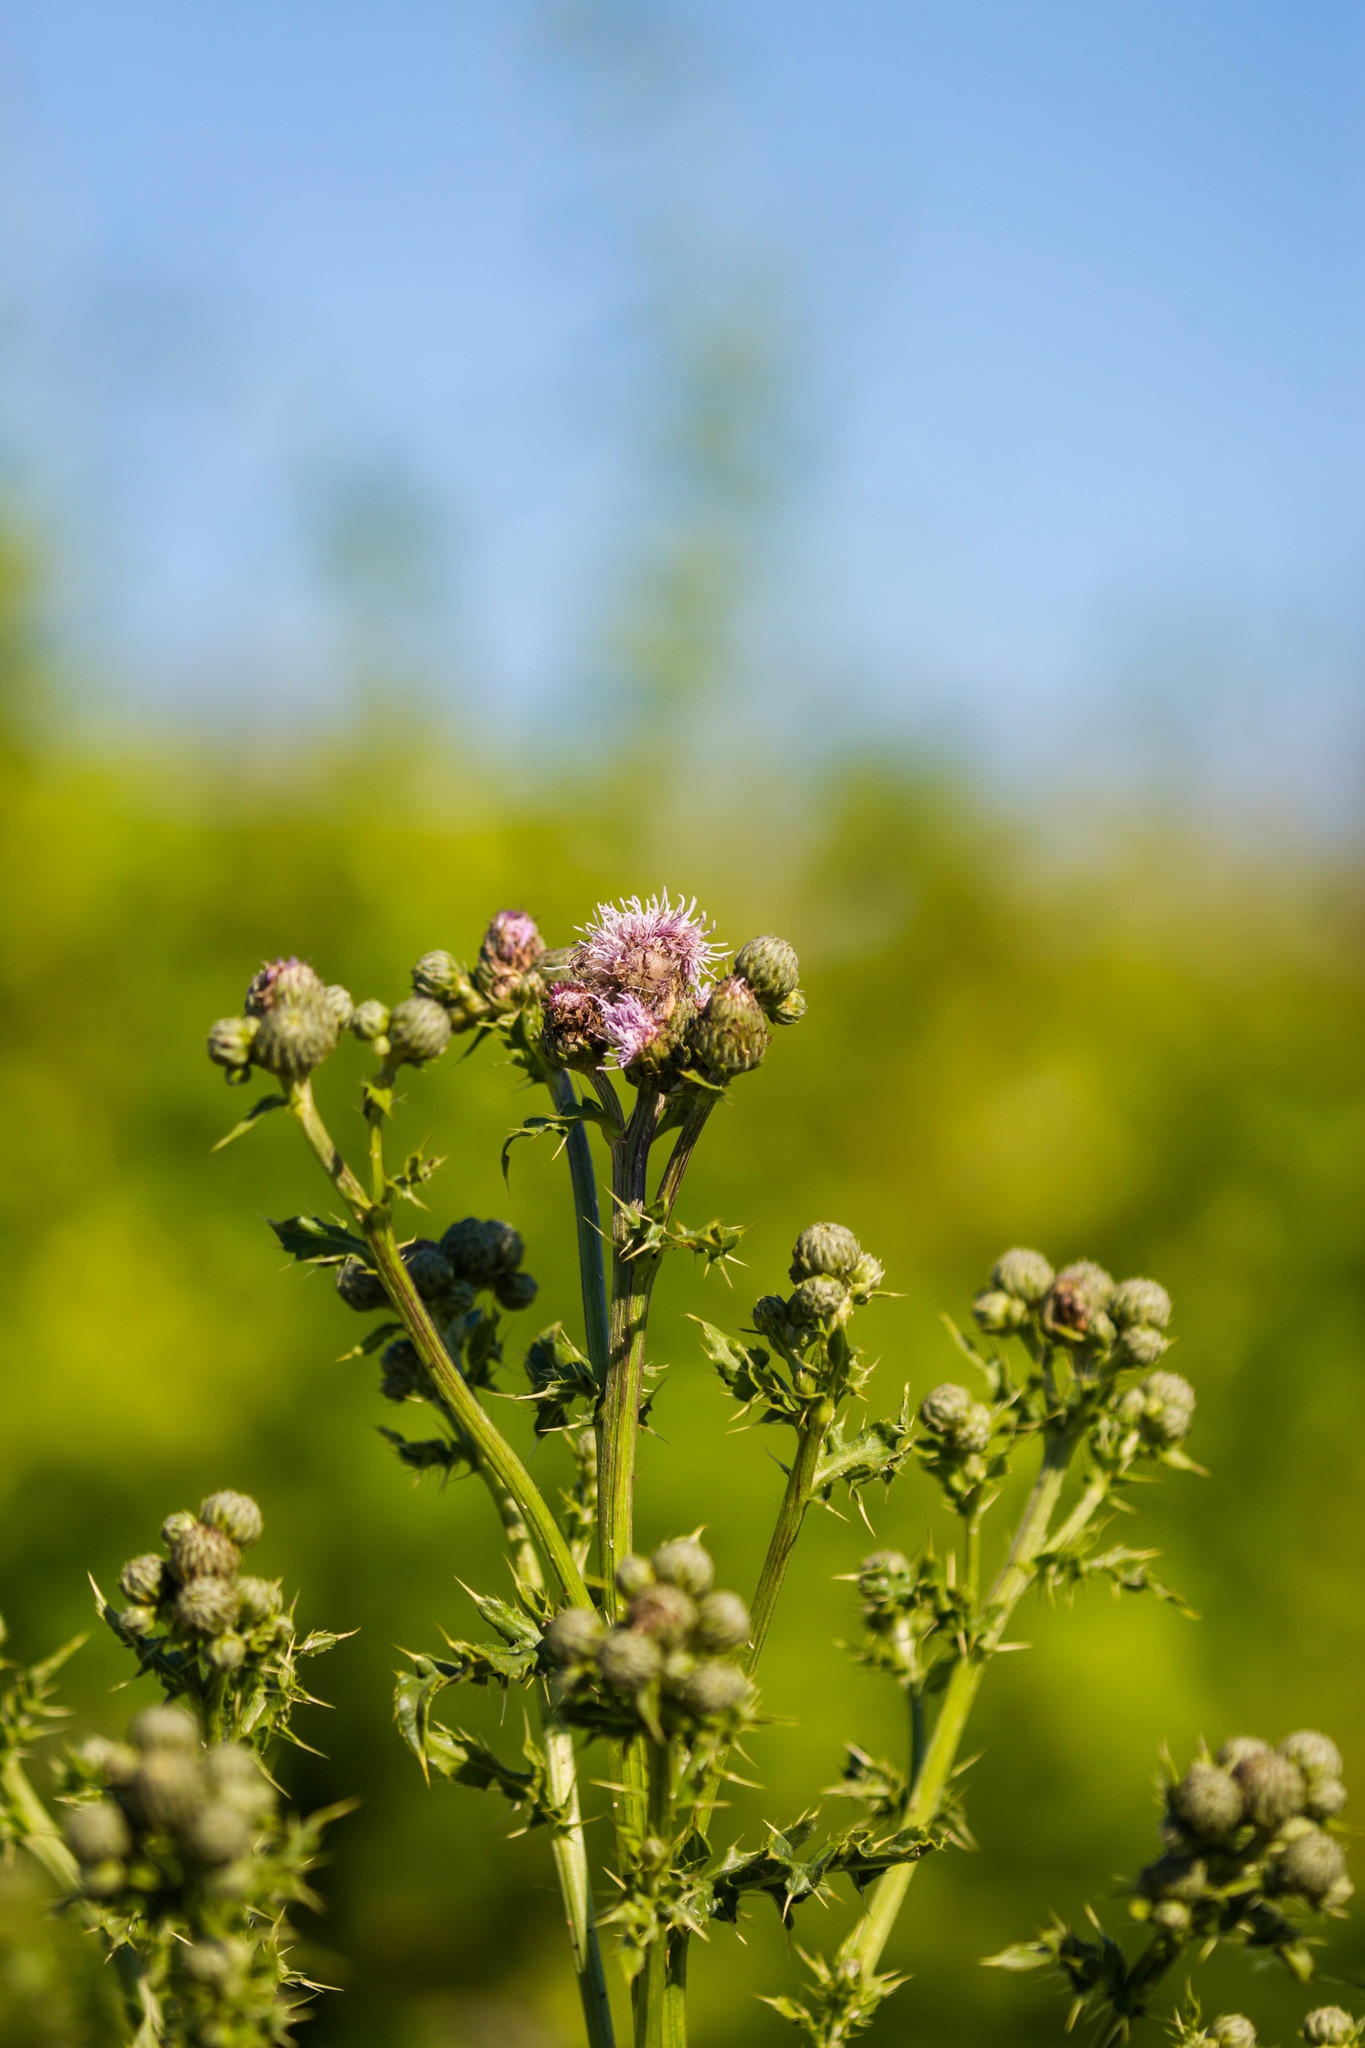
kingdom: Plantae
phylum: Tracheophyta
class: Magnoliopsida
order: Asterales
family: Asteraceae
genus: Cirsium
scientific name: Cirsium arvense
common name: Creeping thistle
